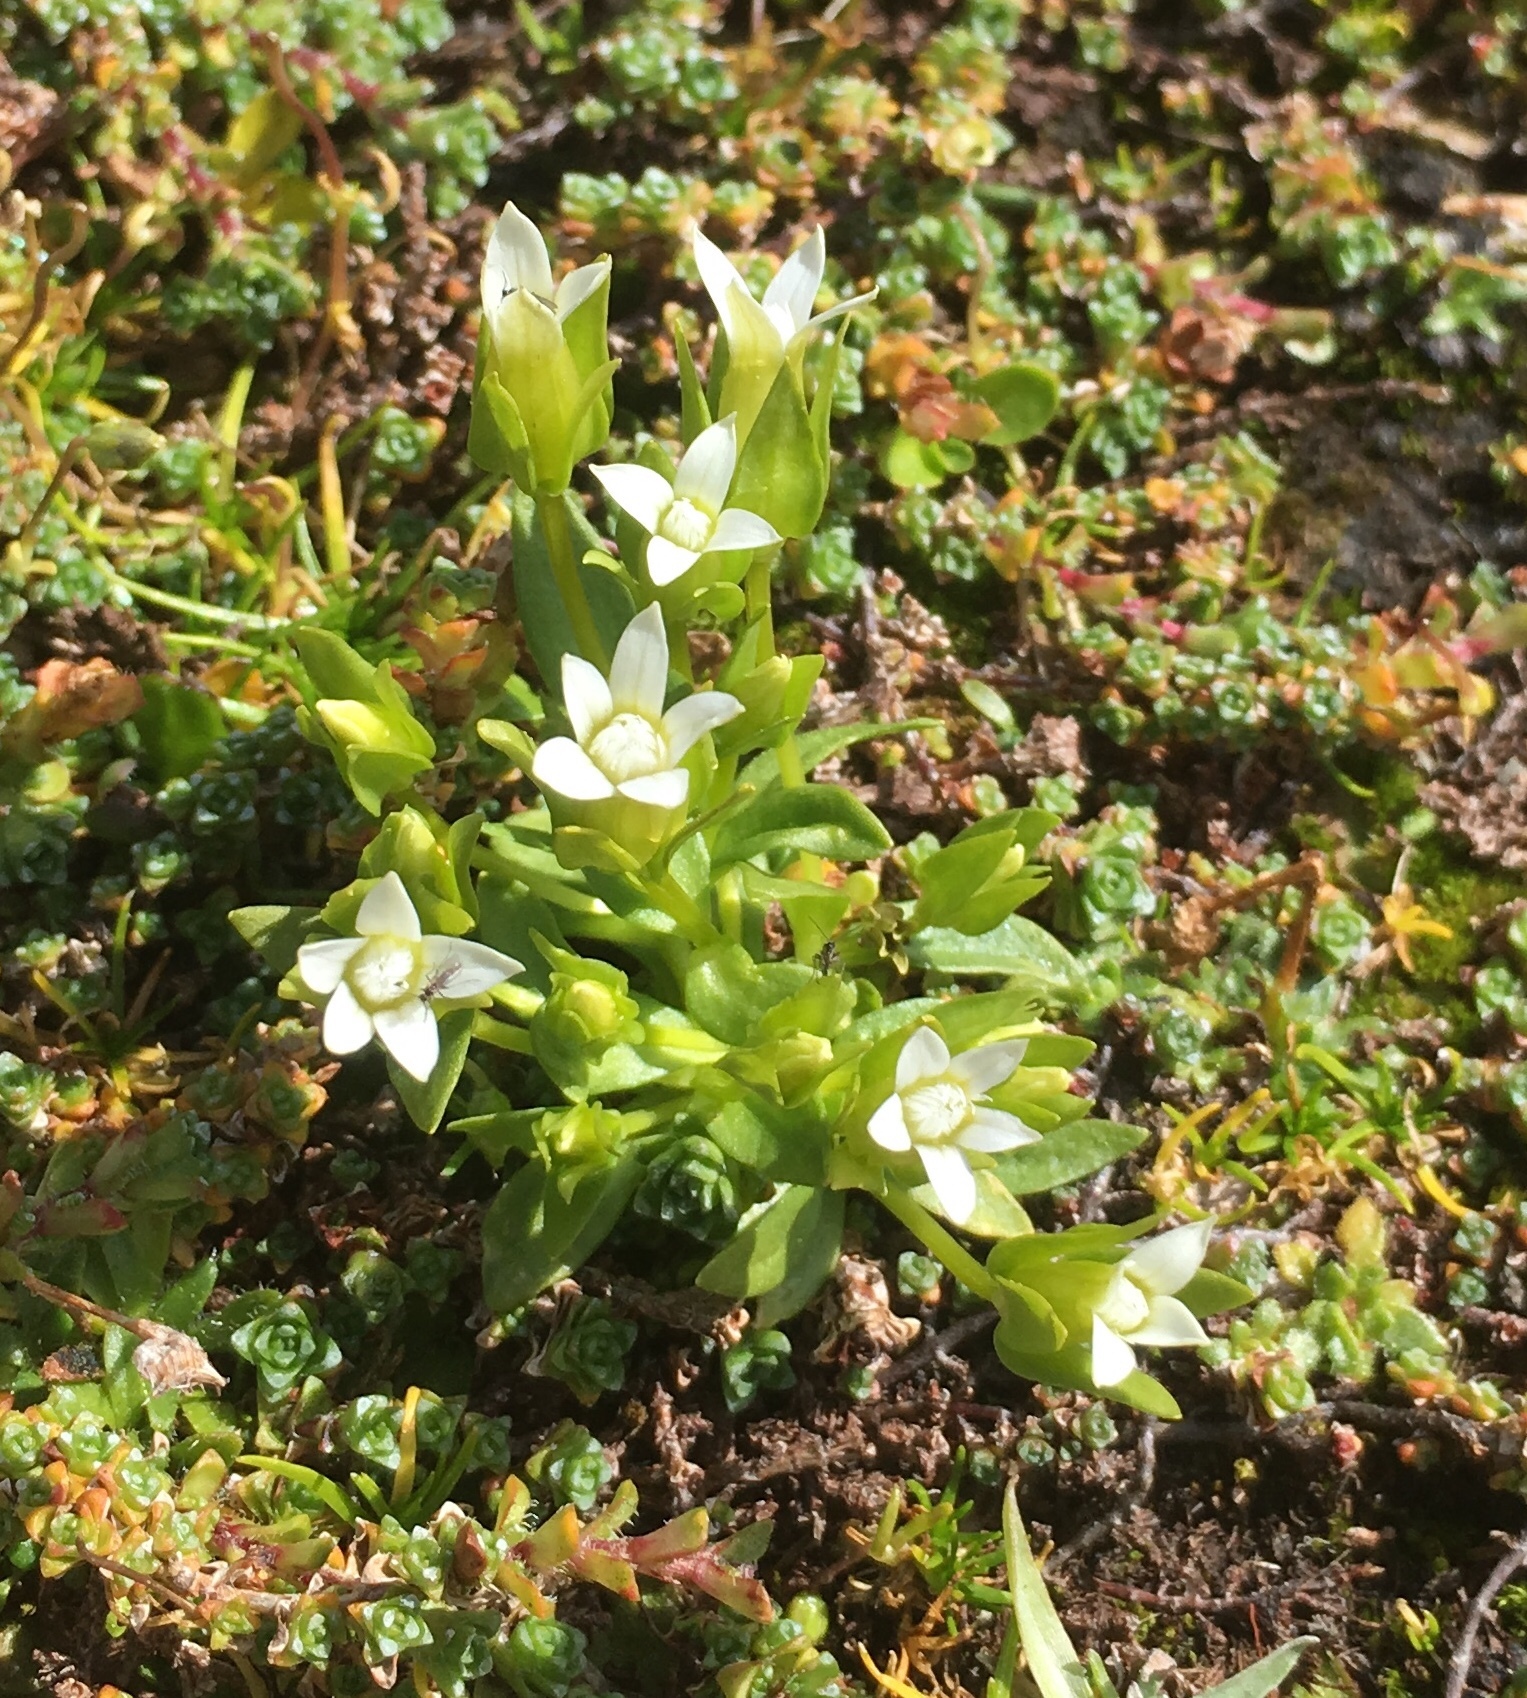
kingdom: Plantae
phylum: Tracheophyta
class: Magnoliopsida
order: Gentianales
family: Gentianaceae
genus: Comastoma
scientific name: Comastoma tenellum
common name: Dane's dwarf gentian
